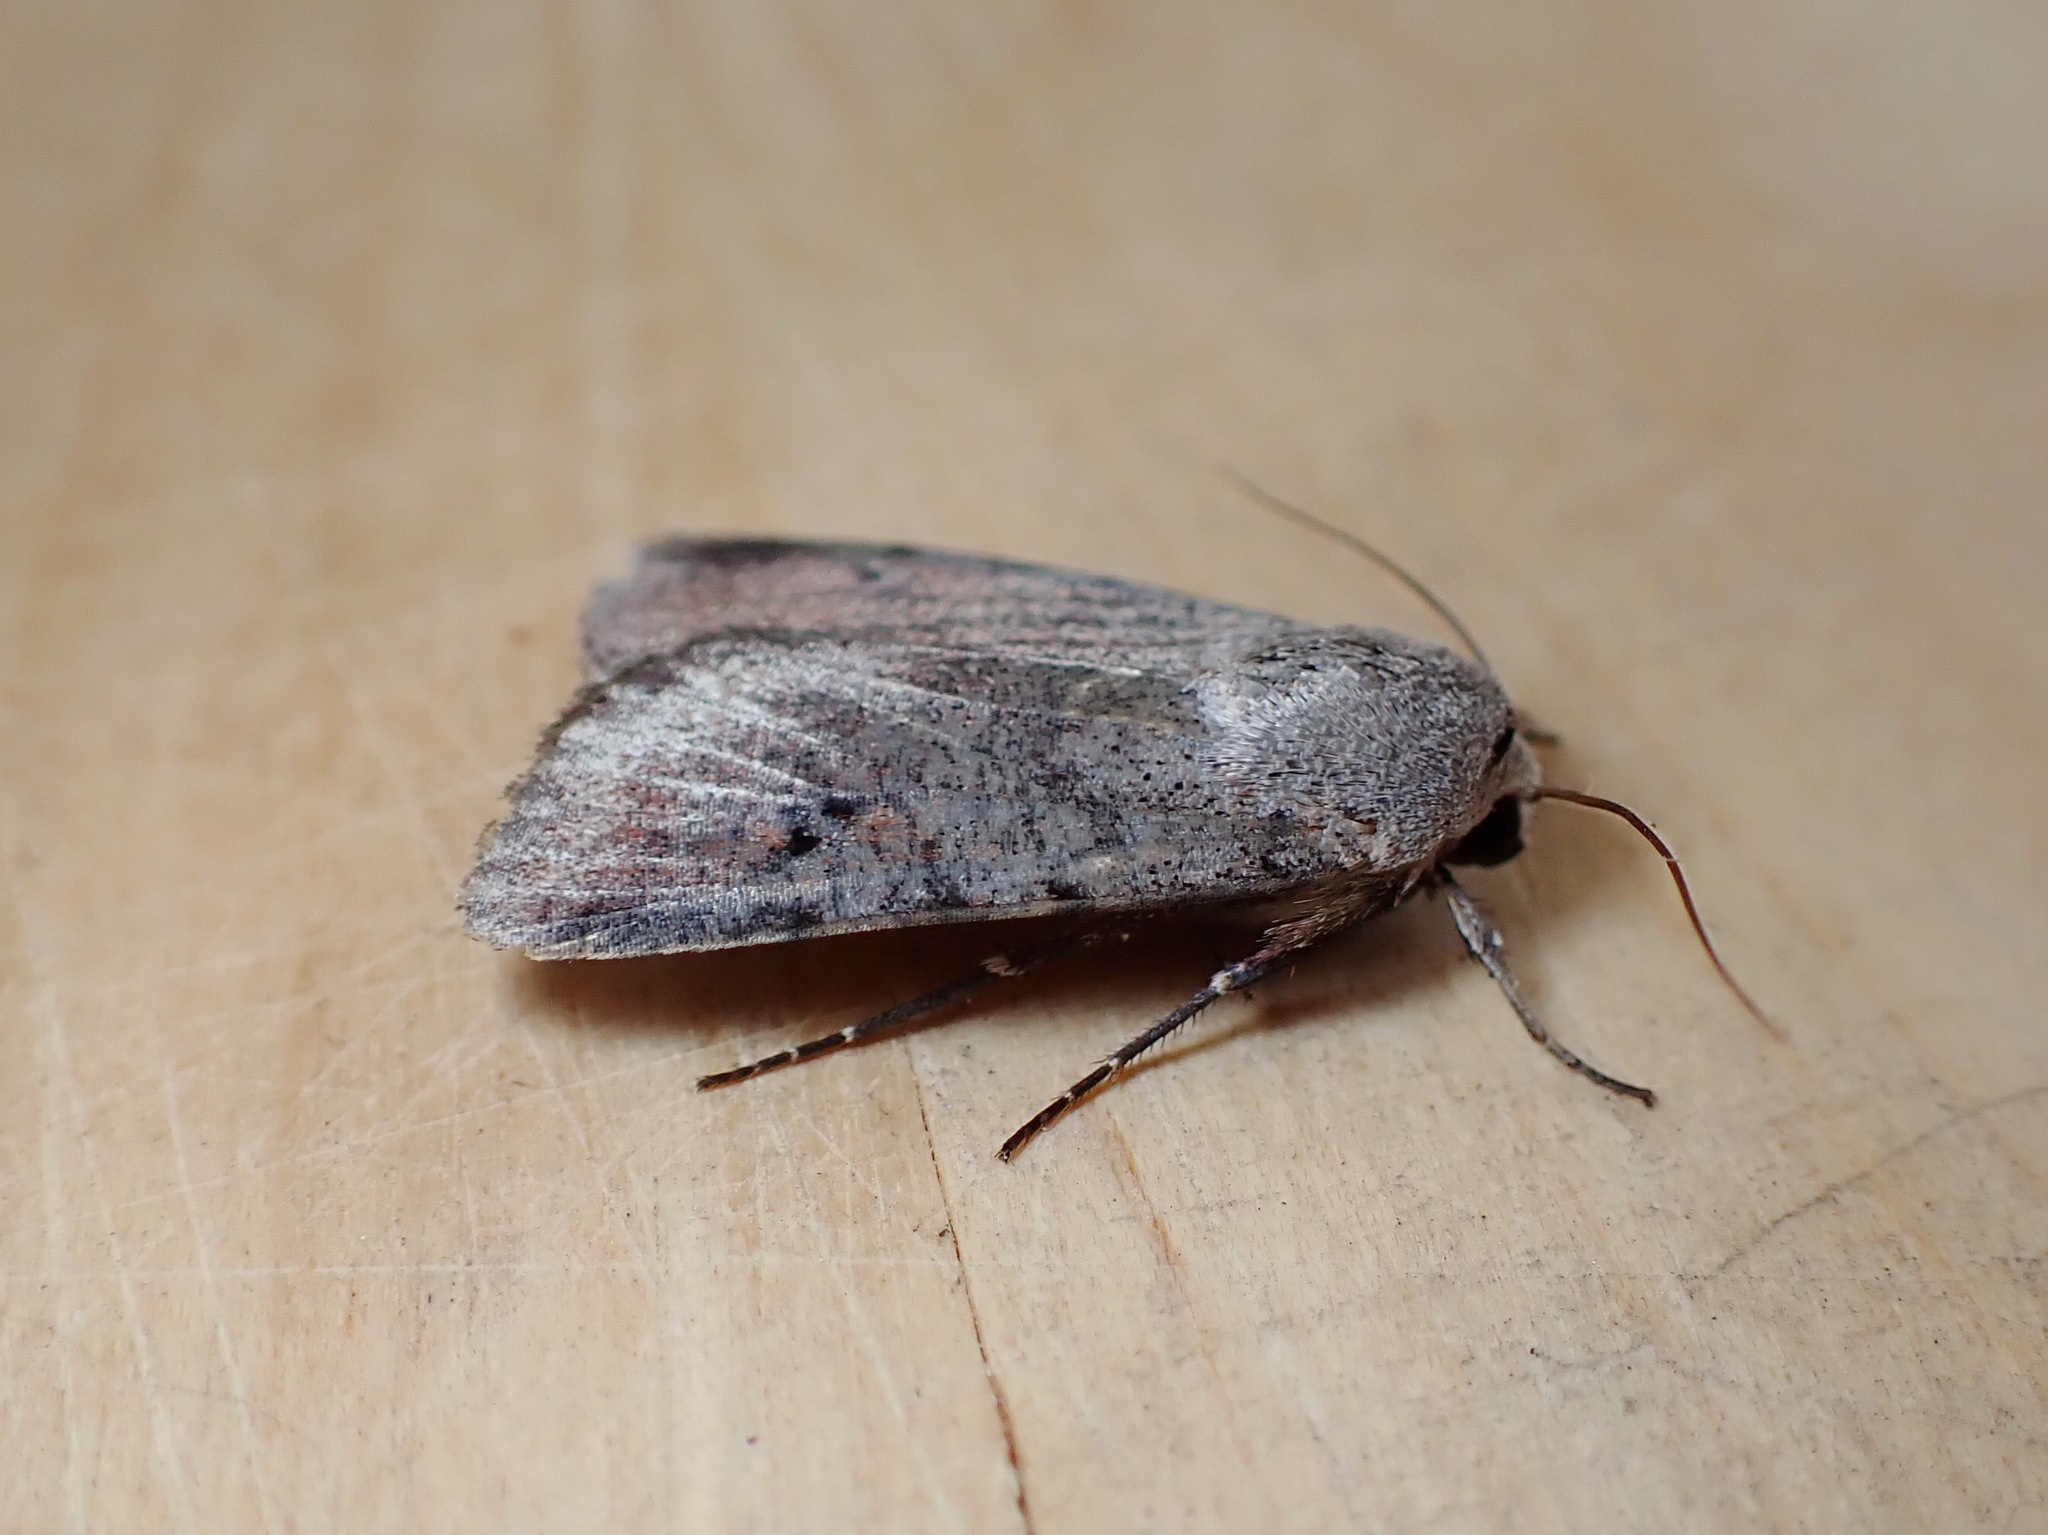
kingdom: Animalia
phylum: Arthropoda
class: Insecta
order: Lepidoptera
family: Noctuidae
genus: Anicla
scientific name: Anicla illapsa
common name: Snowy dart
